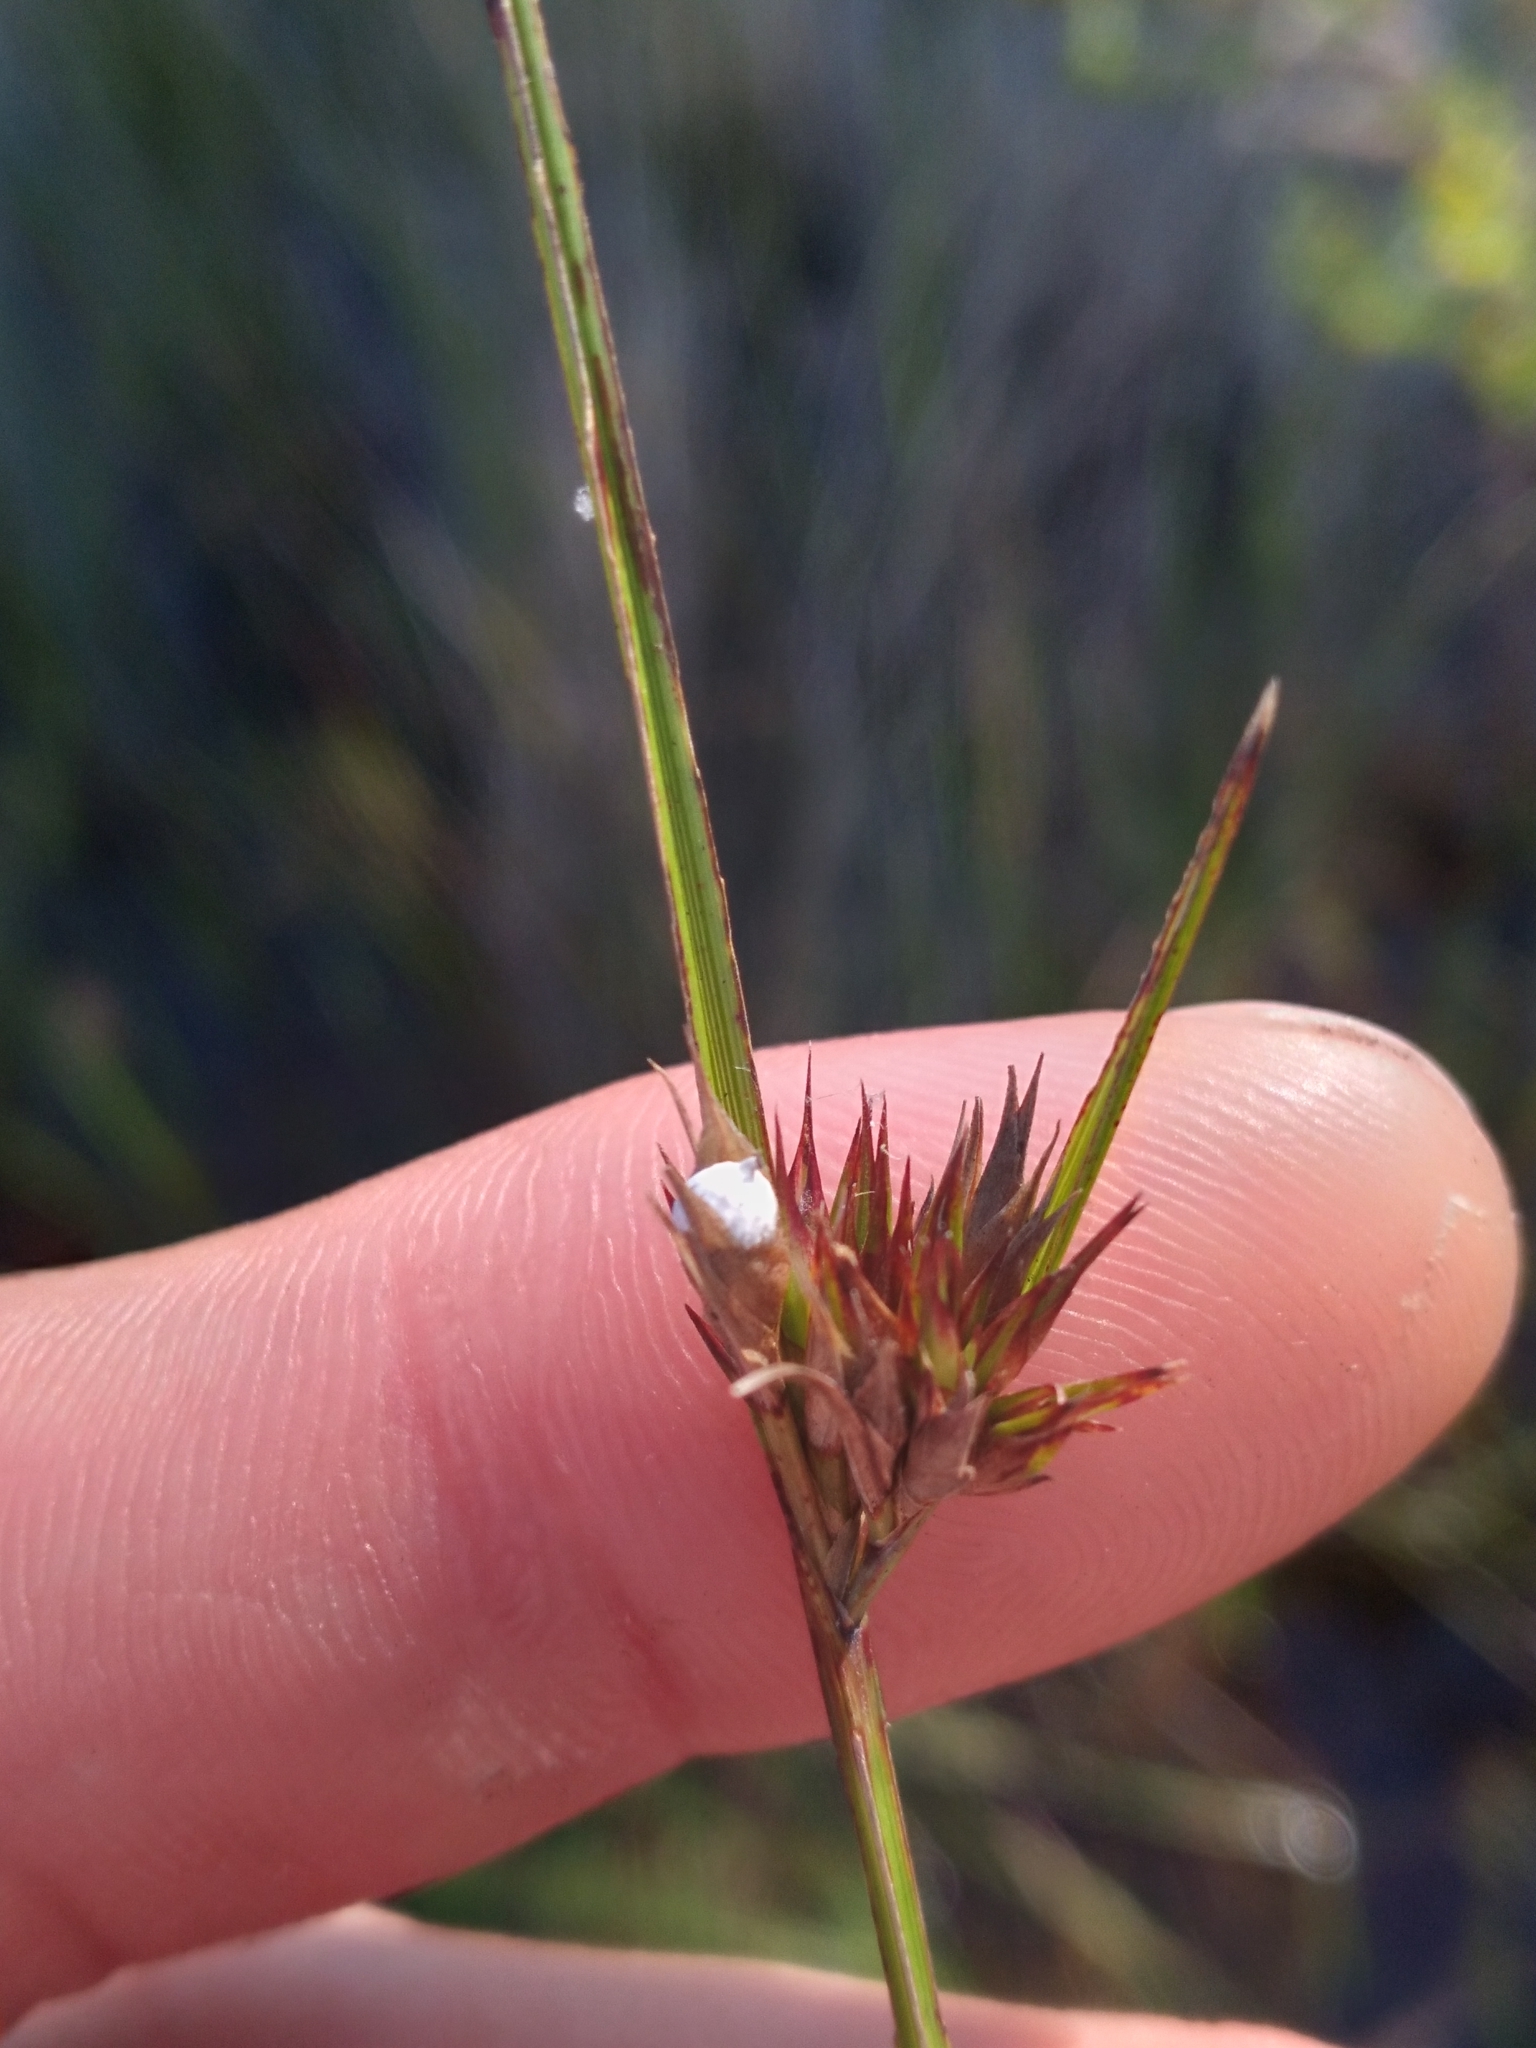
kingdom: Plantae
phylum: Tracheophyta
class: Liliopsida
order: Poales
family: Cyperaceae
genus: Scleria
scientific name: Scleria baldwinii
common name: Baldwin's nutrush
